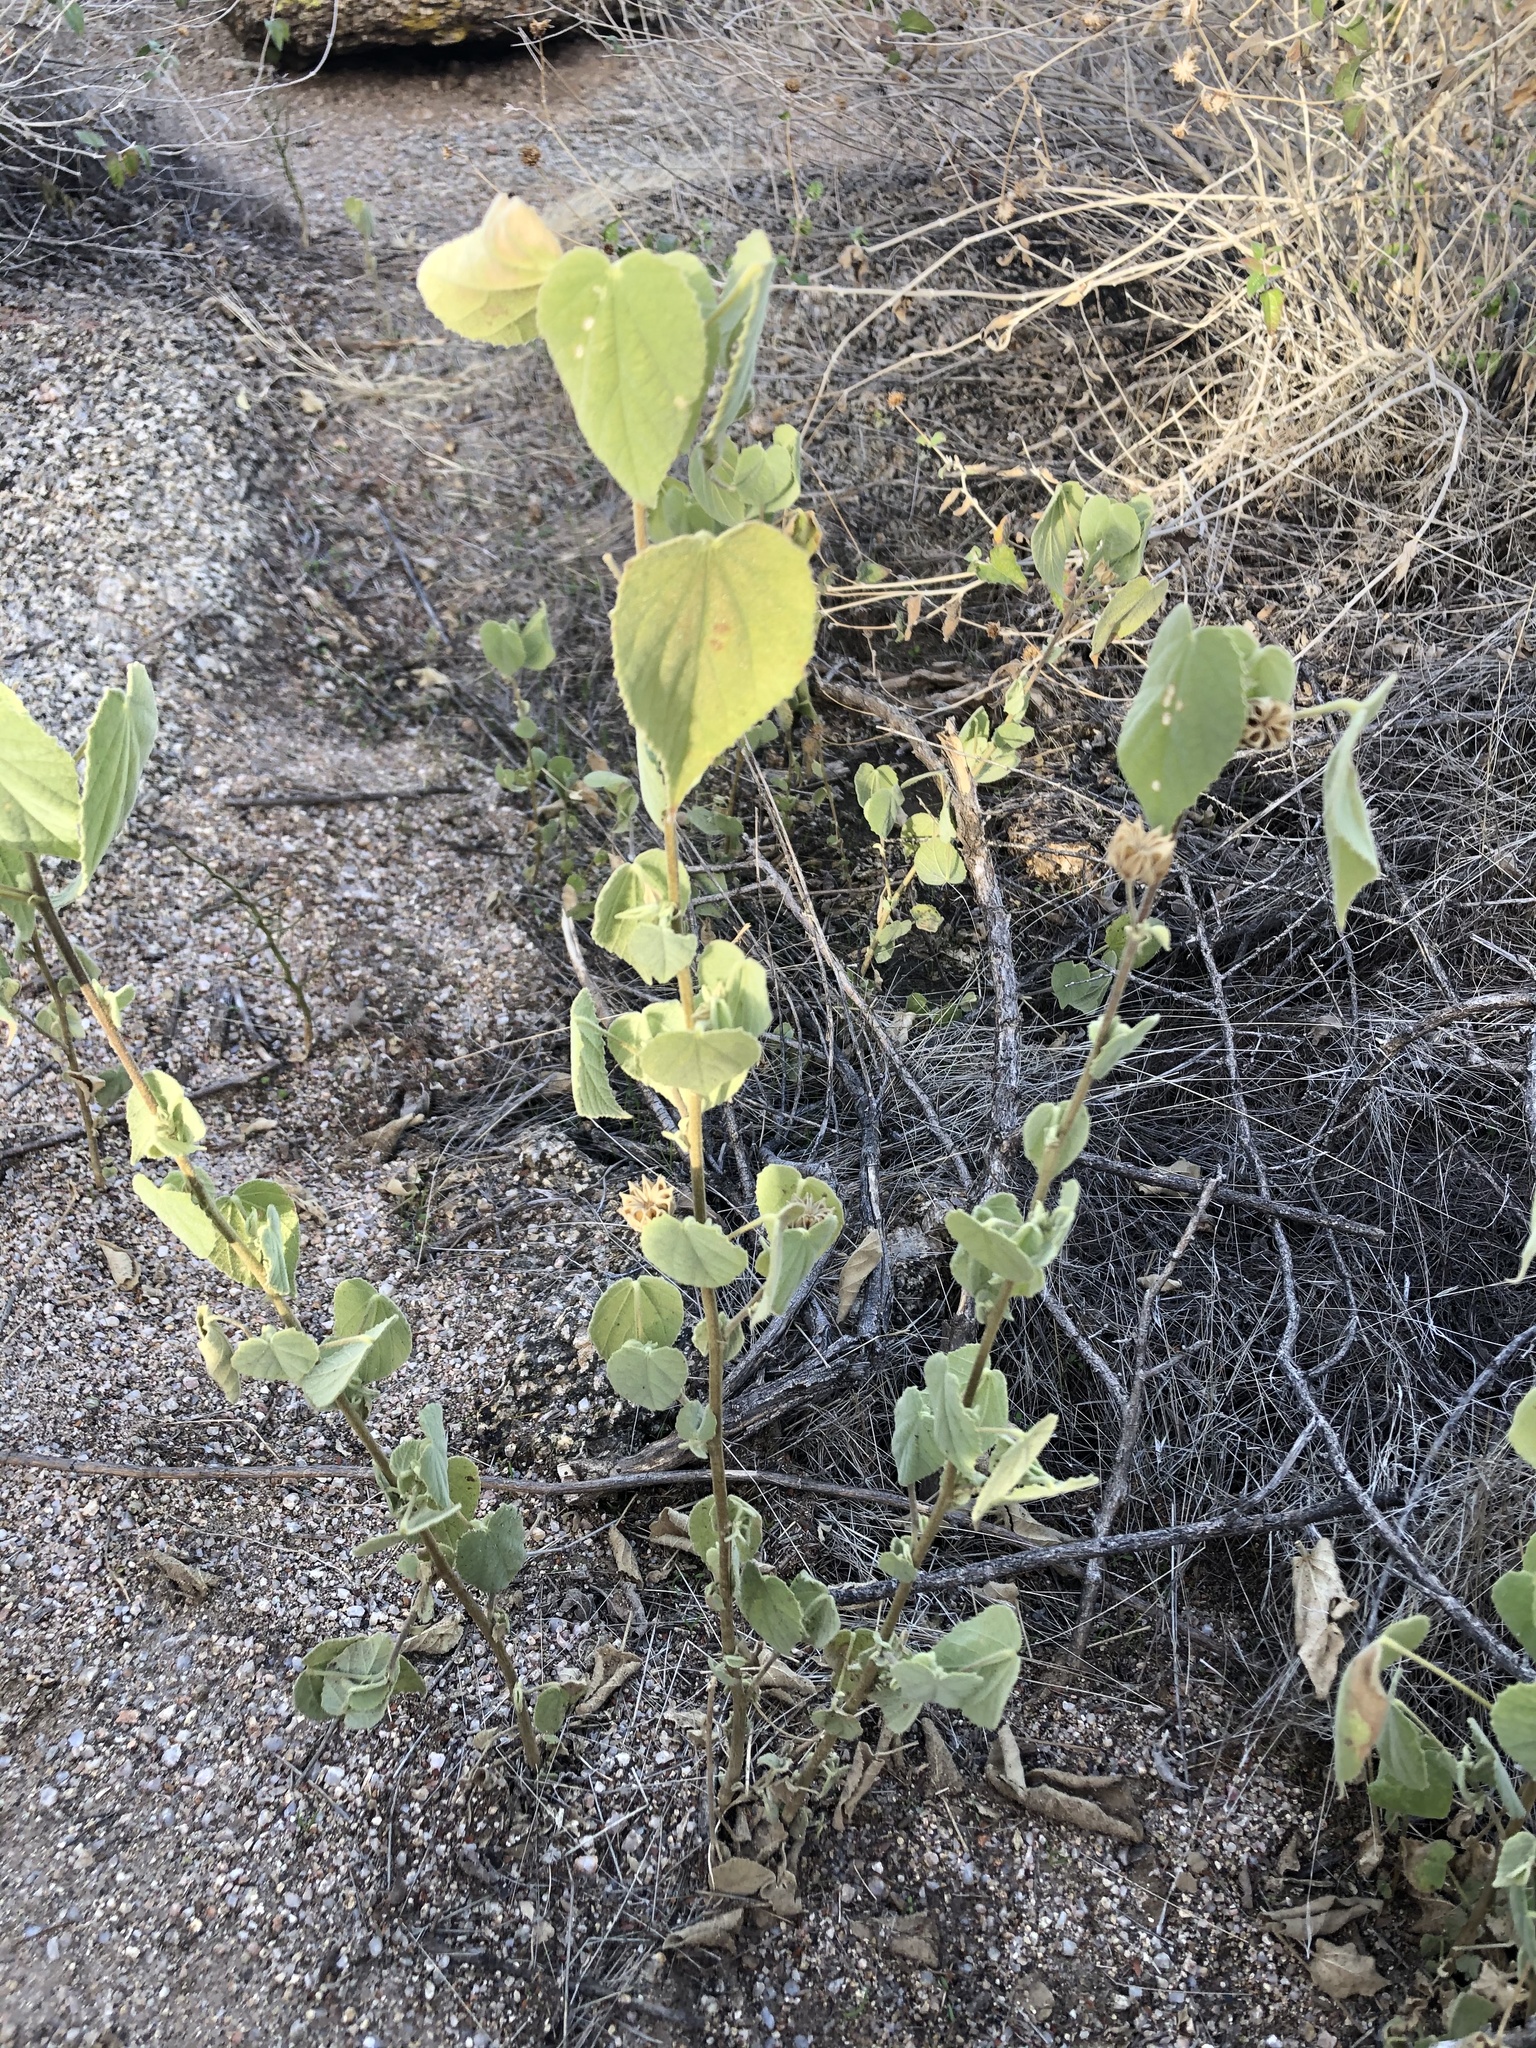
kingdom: Plantae
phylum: Tracheophyta
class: Magnoliopsida
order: Malvales
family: Malvaceae
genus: Abutilon
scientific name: Abutilon abutiloides
